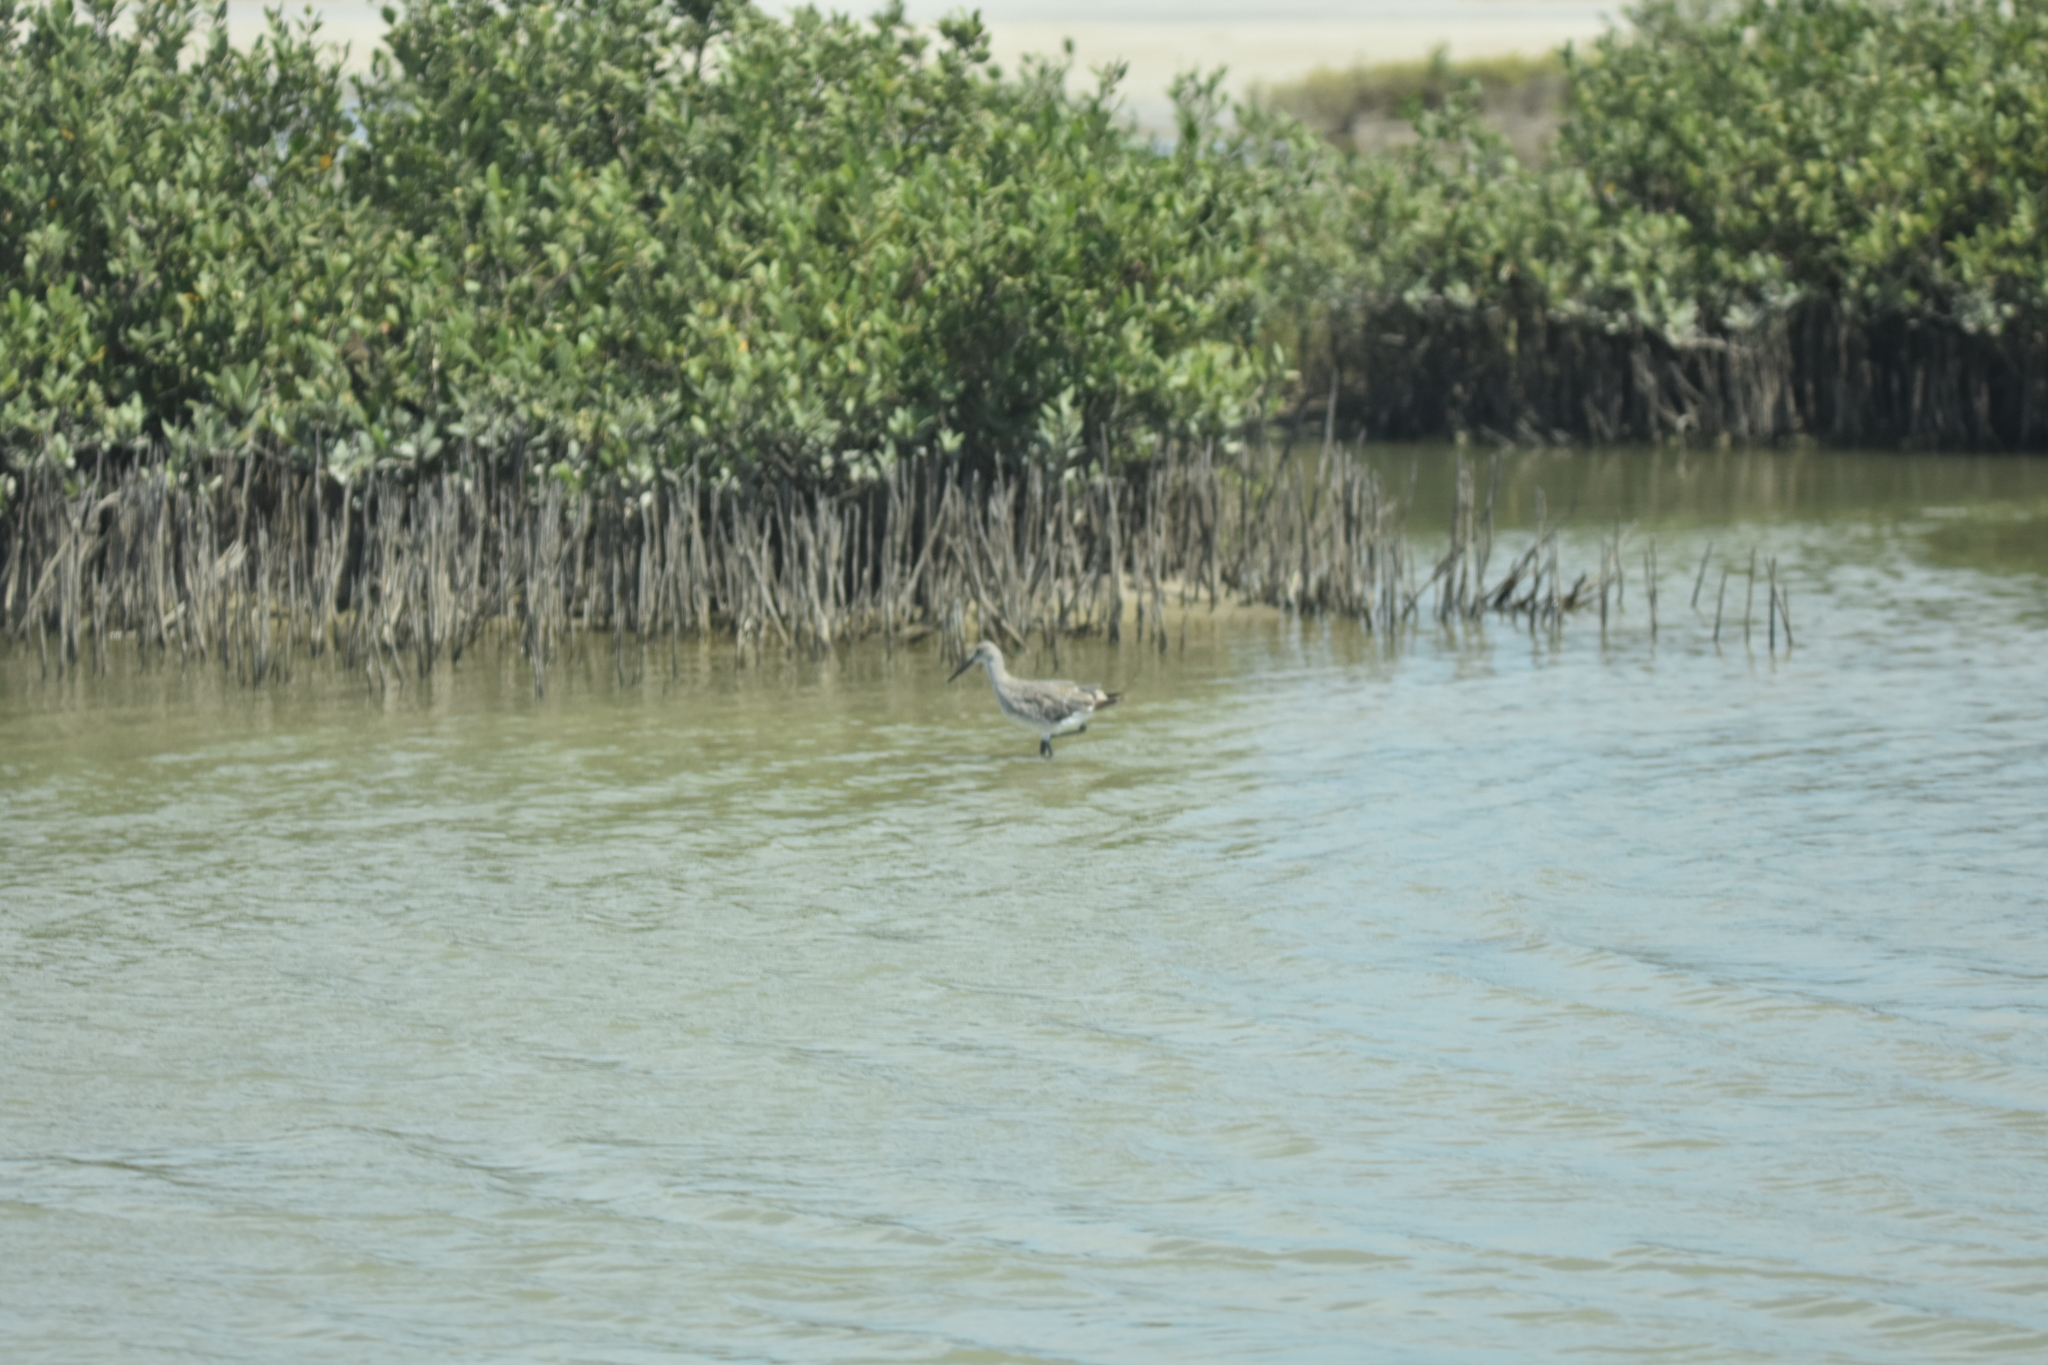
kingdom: Animalia
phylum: Chordata
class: Aves
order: Charadriiformes
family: Scolopacidae
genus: Tringa
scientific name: Tringa semipalmata
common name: Willet
